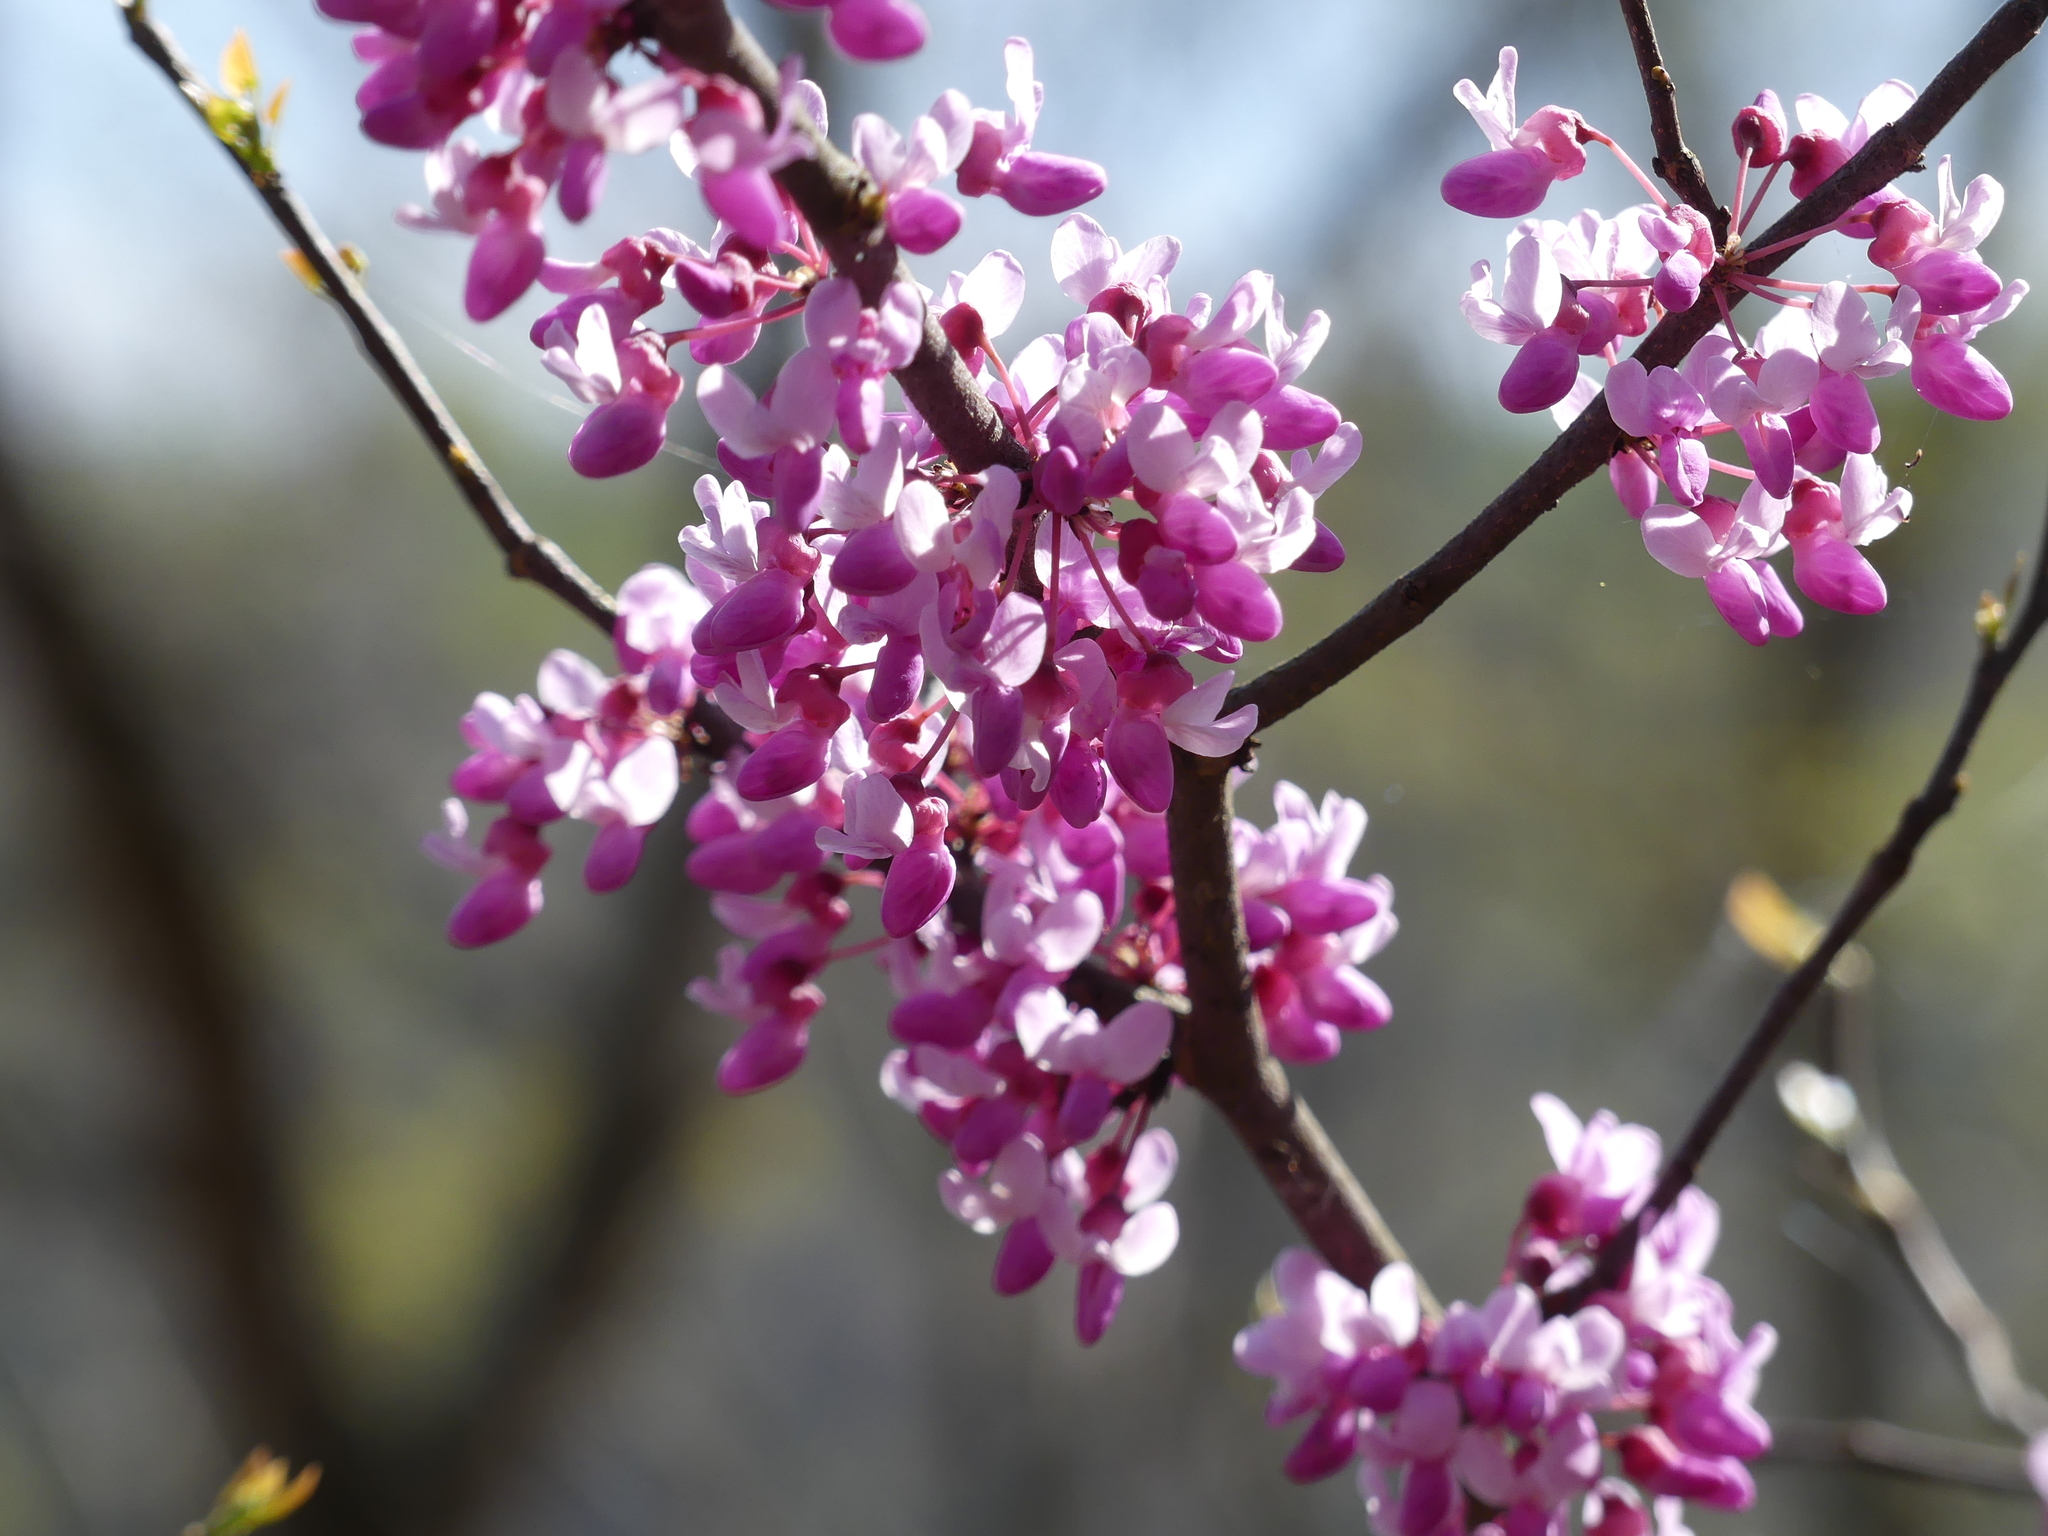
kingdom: Plantae
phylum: Tracheophyta
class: Magnoliopsida
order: Fabales
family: Fabaceae
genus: Cercis
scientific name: Cercis canadensis
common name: Eastern redbud
